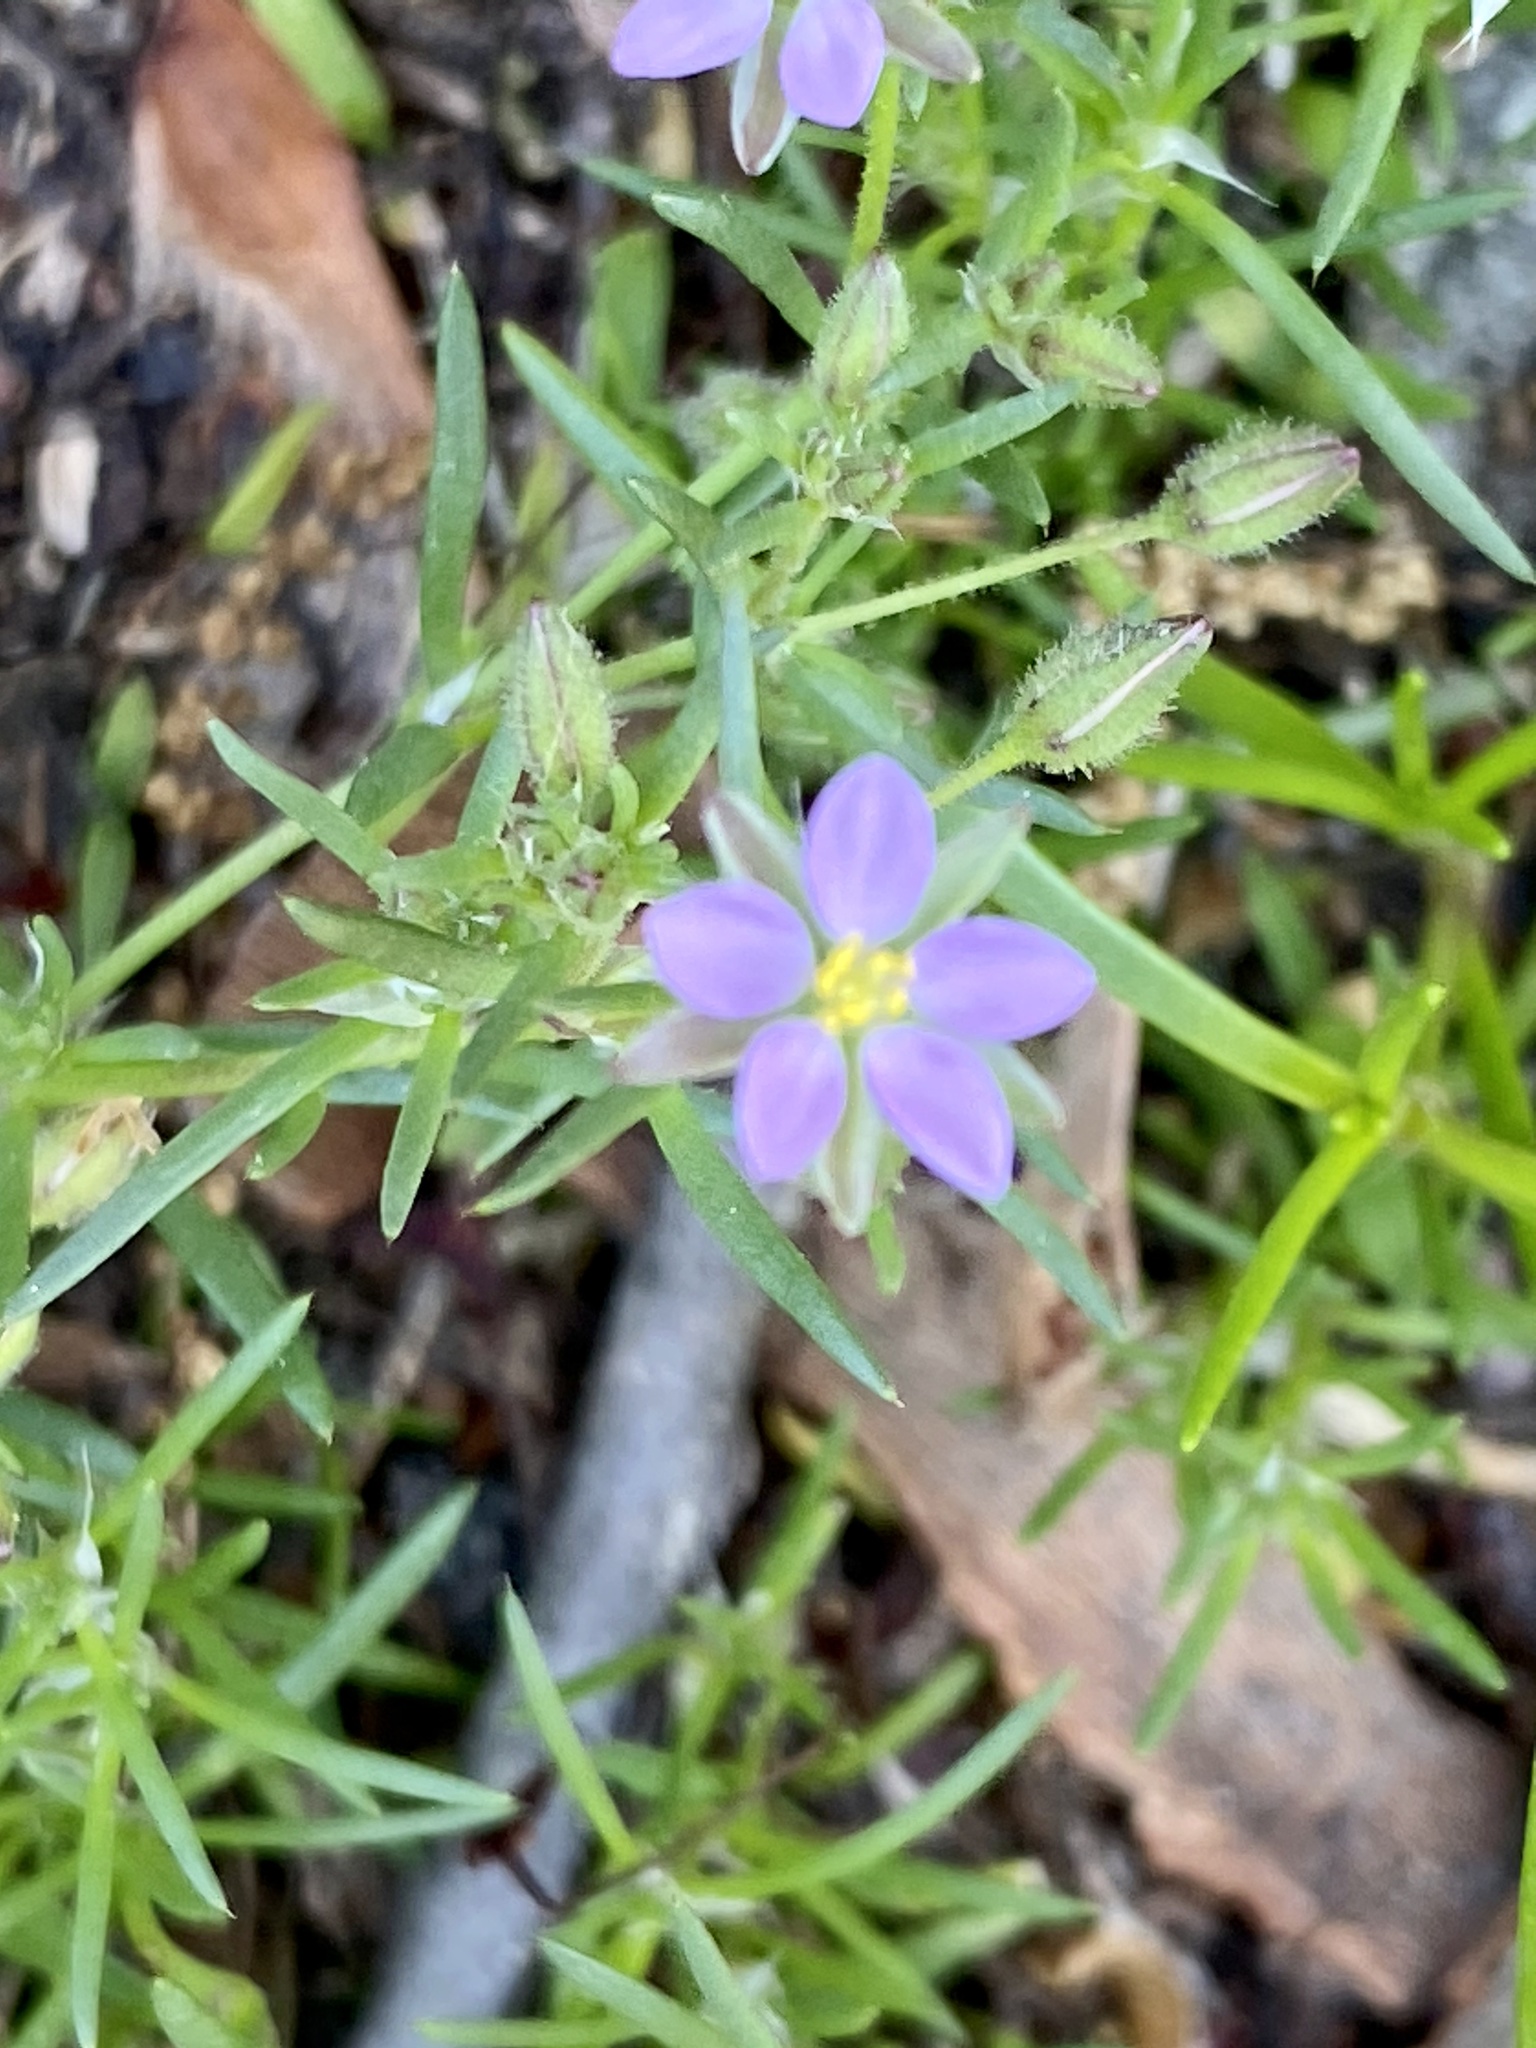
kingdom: Plantae
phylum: Tracheophyta
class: Magnoliopsida
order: Caryophyllales
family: Caryophyllaceae
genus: Spergularia
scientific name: Spergularia rubra
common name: Red sand-spurrey
